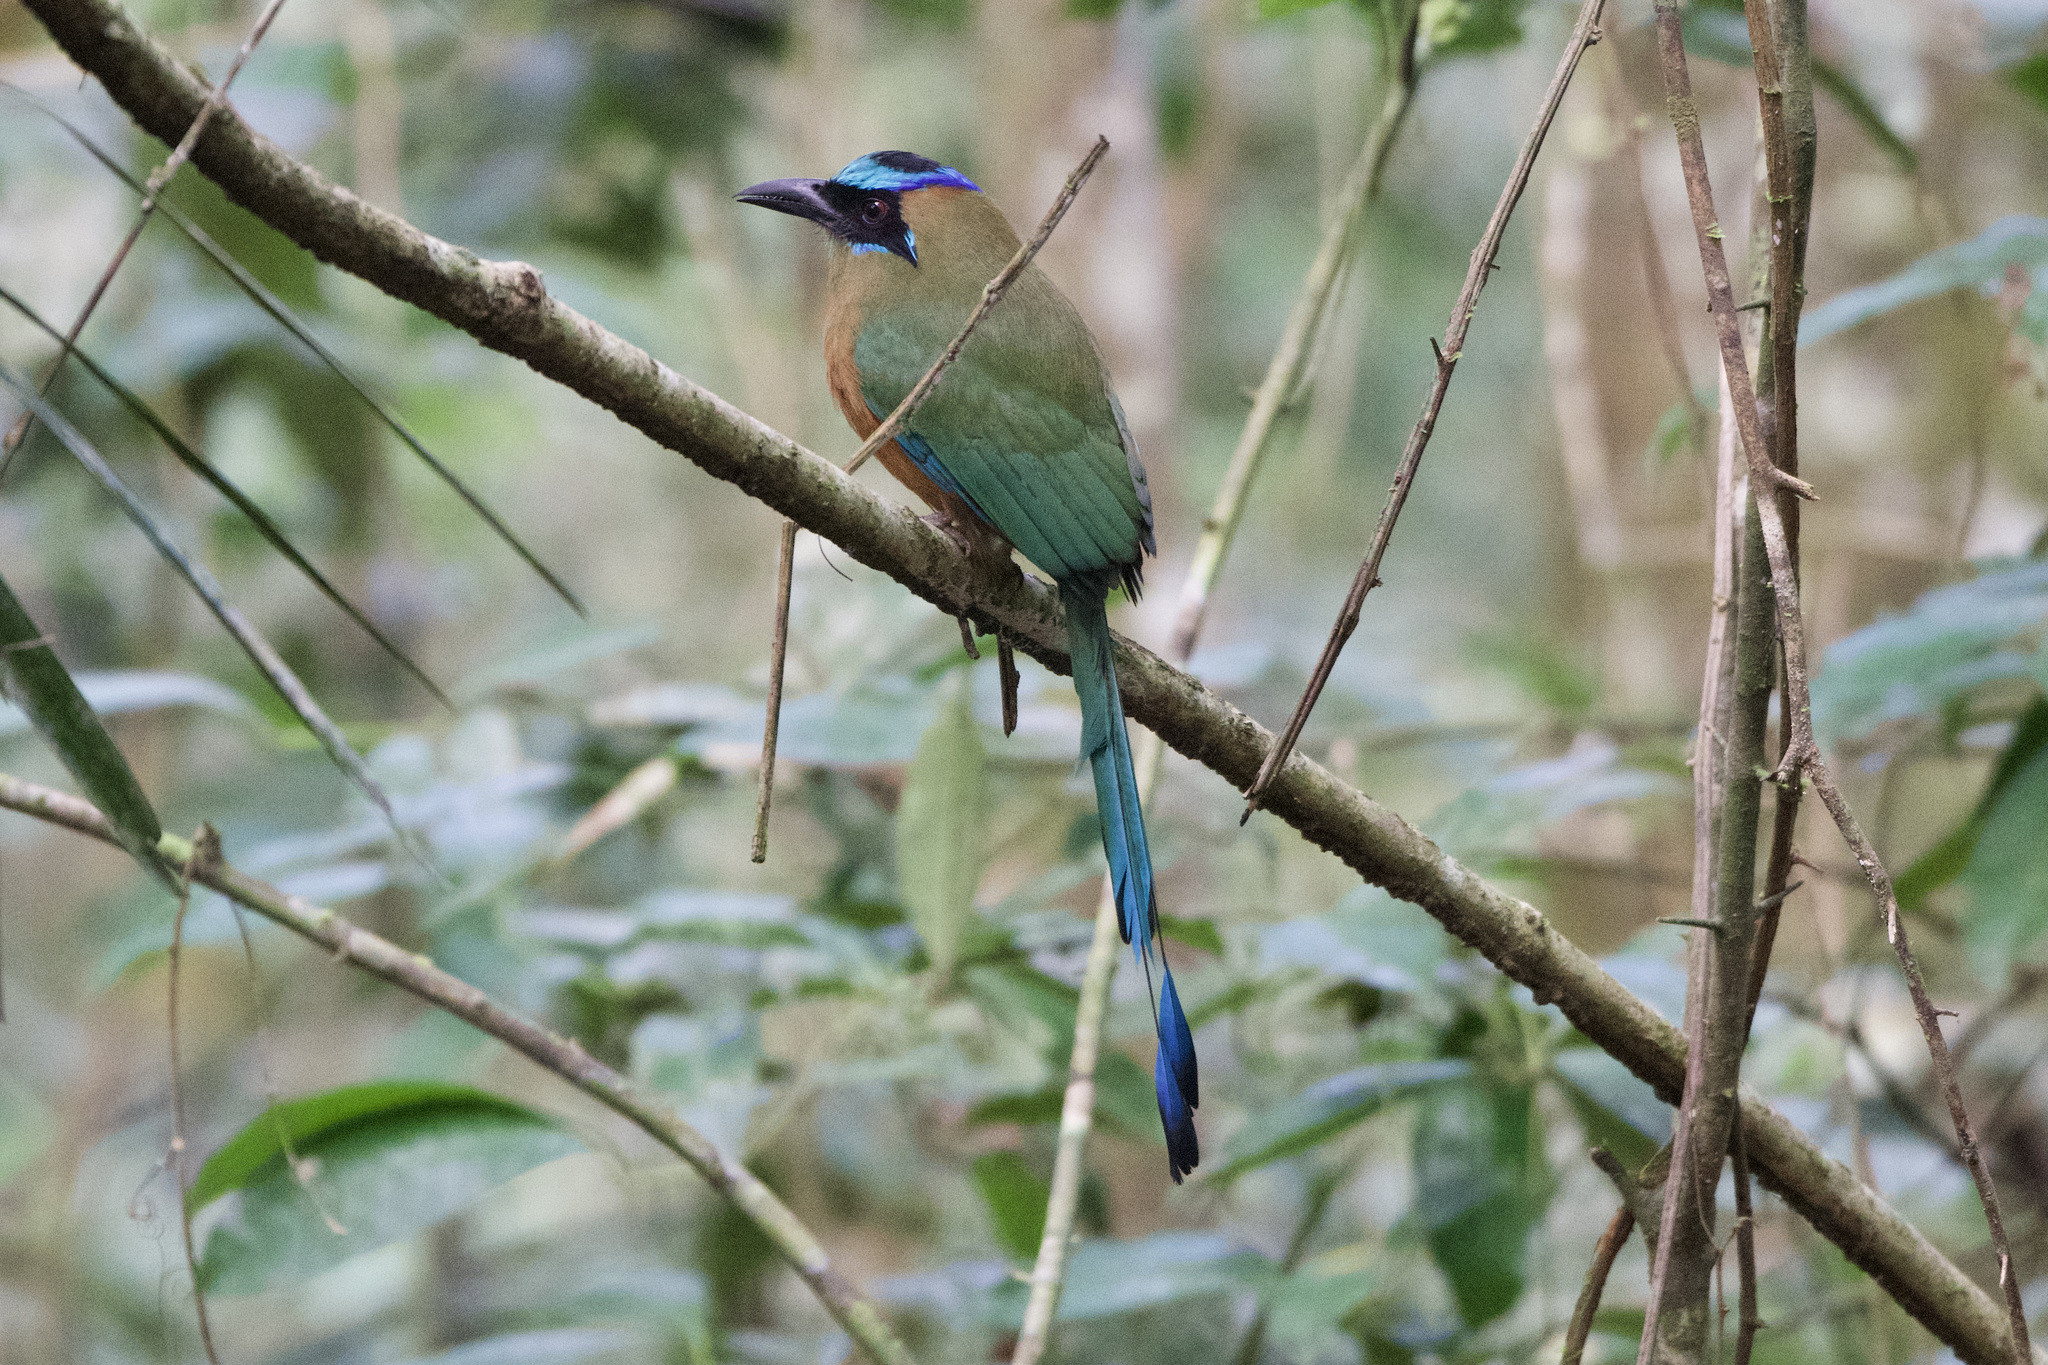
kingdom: Animalia
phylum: Chordata
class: Aves
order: Coraciiformes
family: Momotidae
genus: Momotus
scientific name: Momotus subrufescens
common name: Whooping motmot
